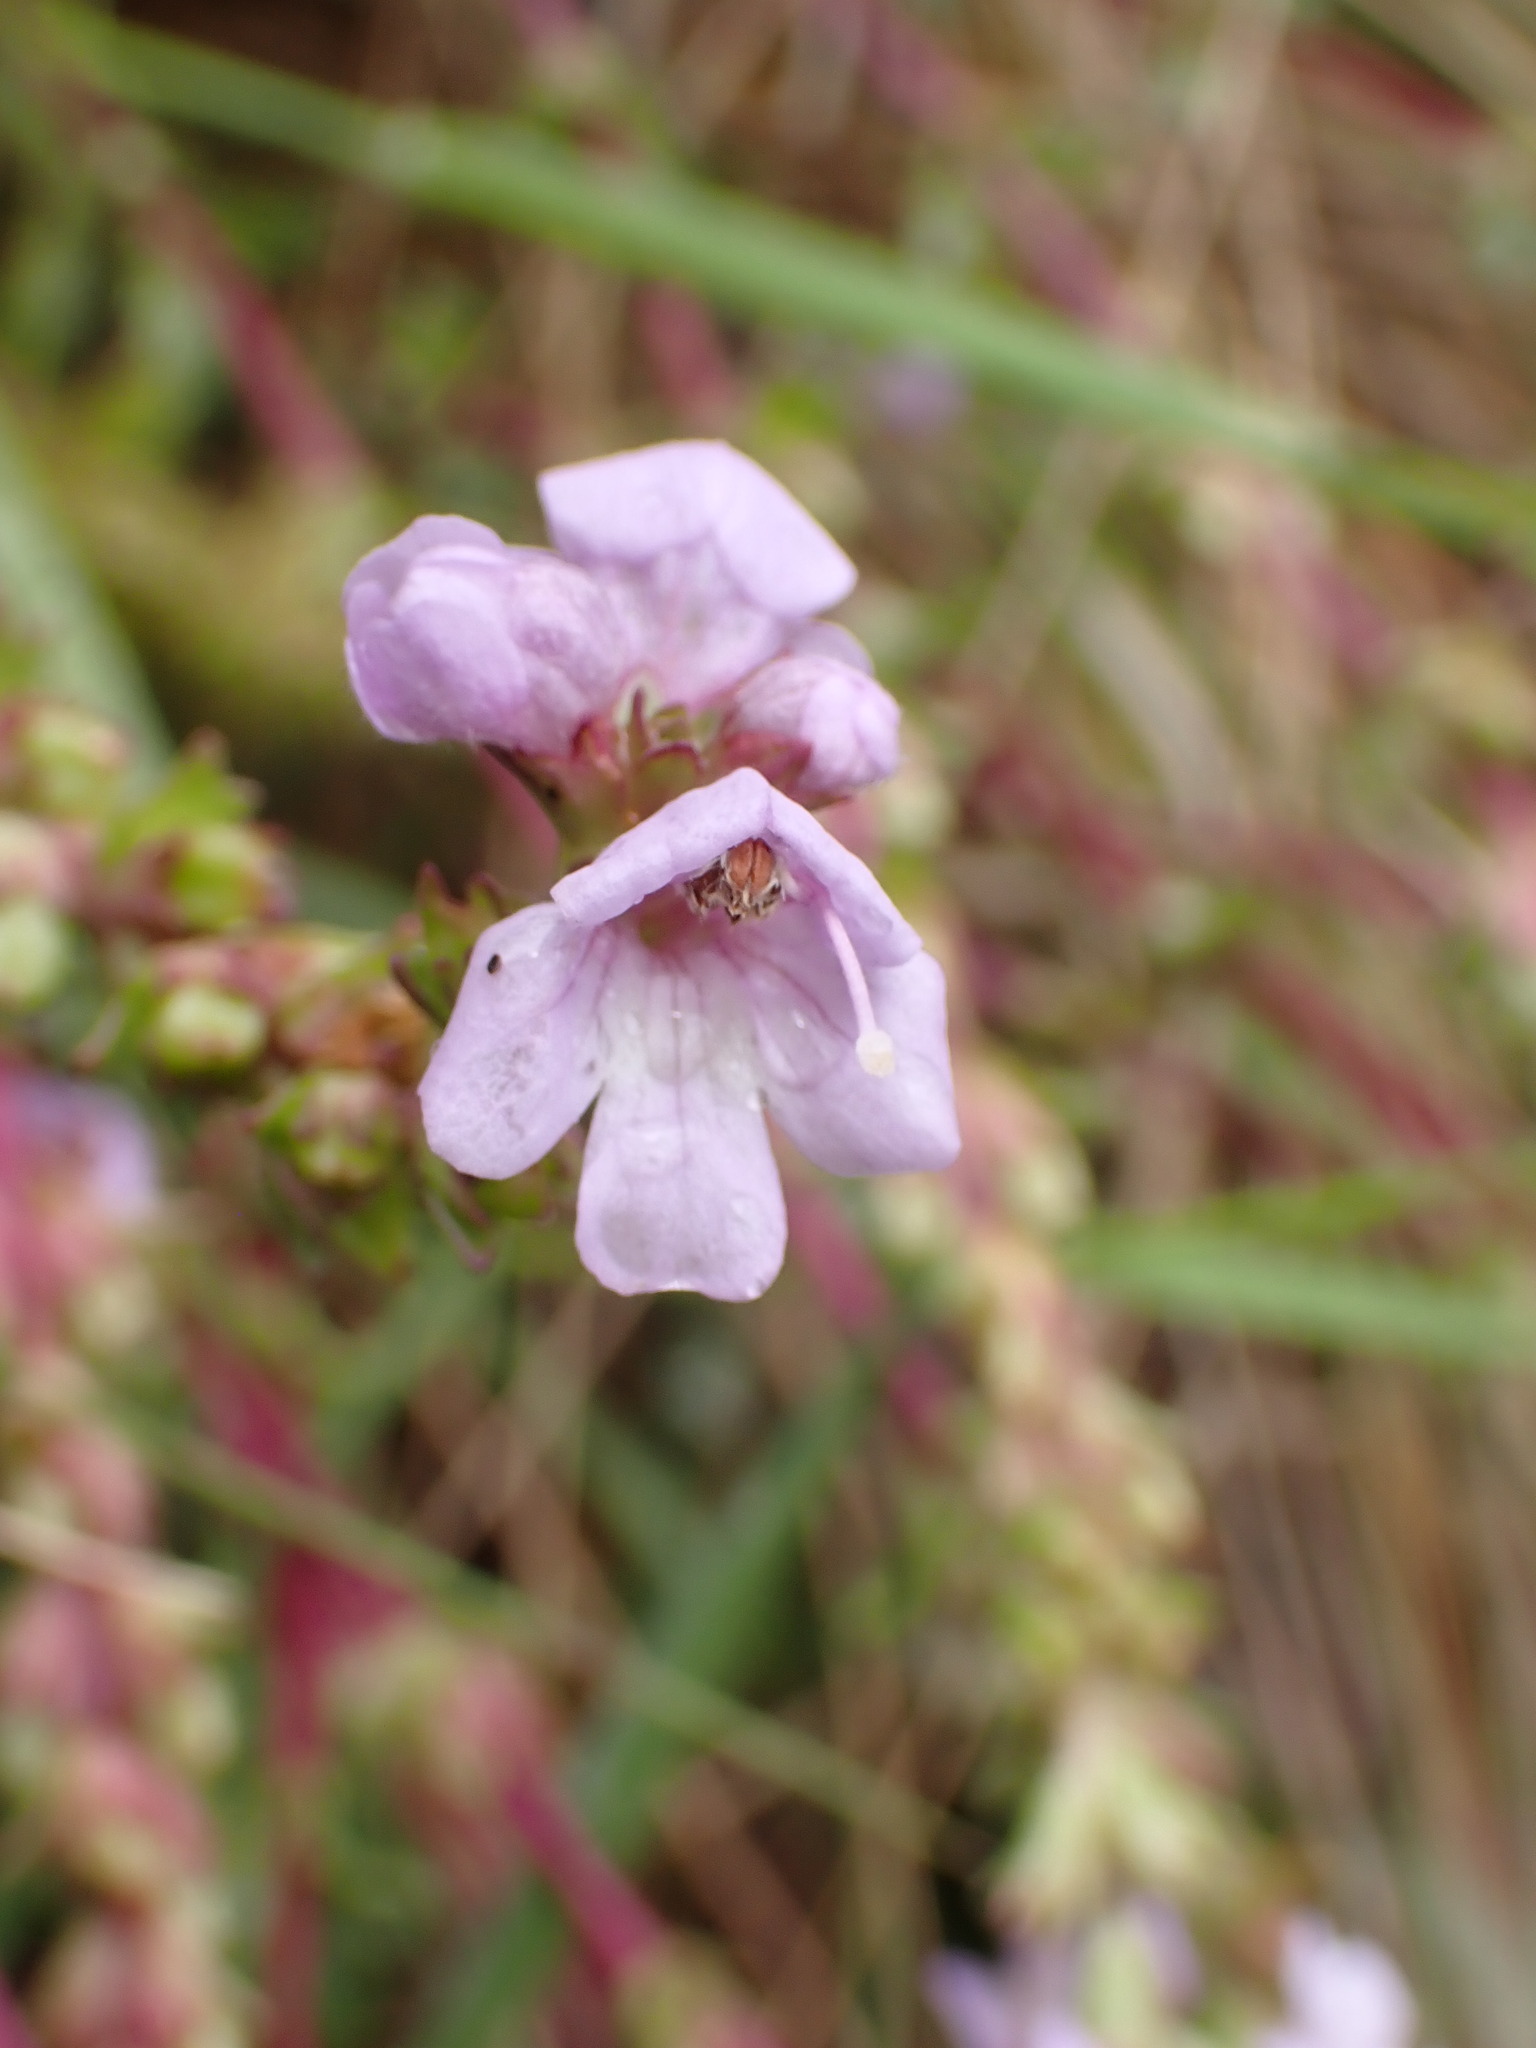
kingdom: Plantae
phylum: Tracheophyta
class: Magnoliopsida
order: Lamiales
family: Orobanchaceae
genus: Euphrasia
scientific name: Euphrasia collina
